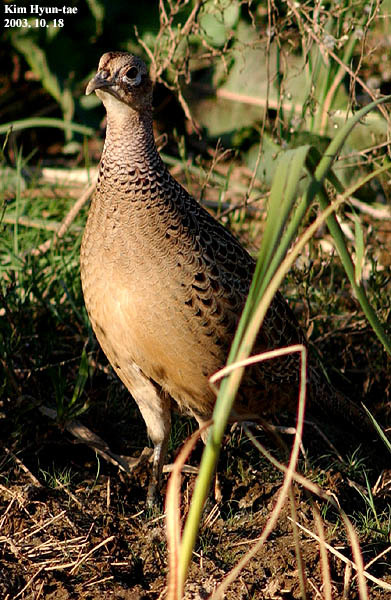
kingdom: Animalia
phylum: Chordata
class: Aves
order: Galliformes
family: Phasianidae
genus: Phasianus
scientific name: Phasianus colchicus
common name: Common pheasant
